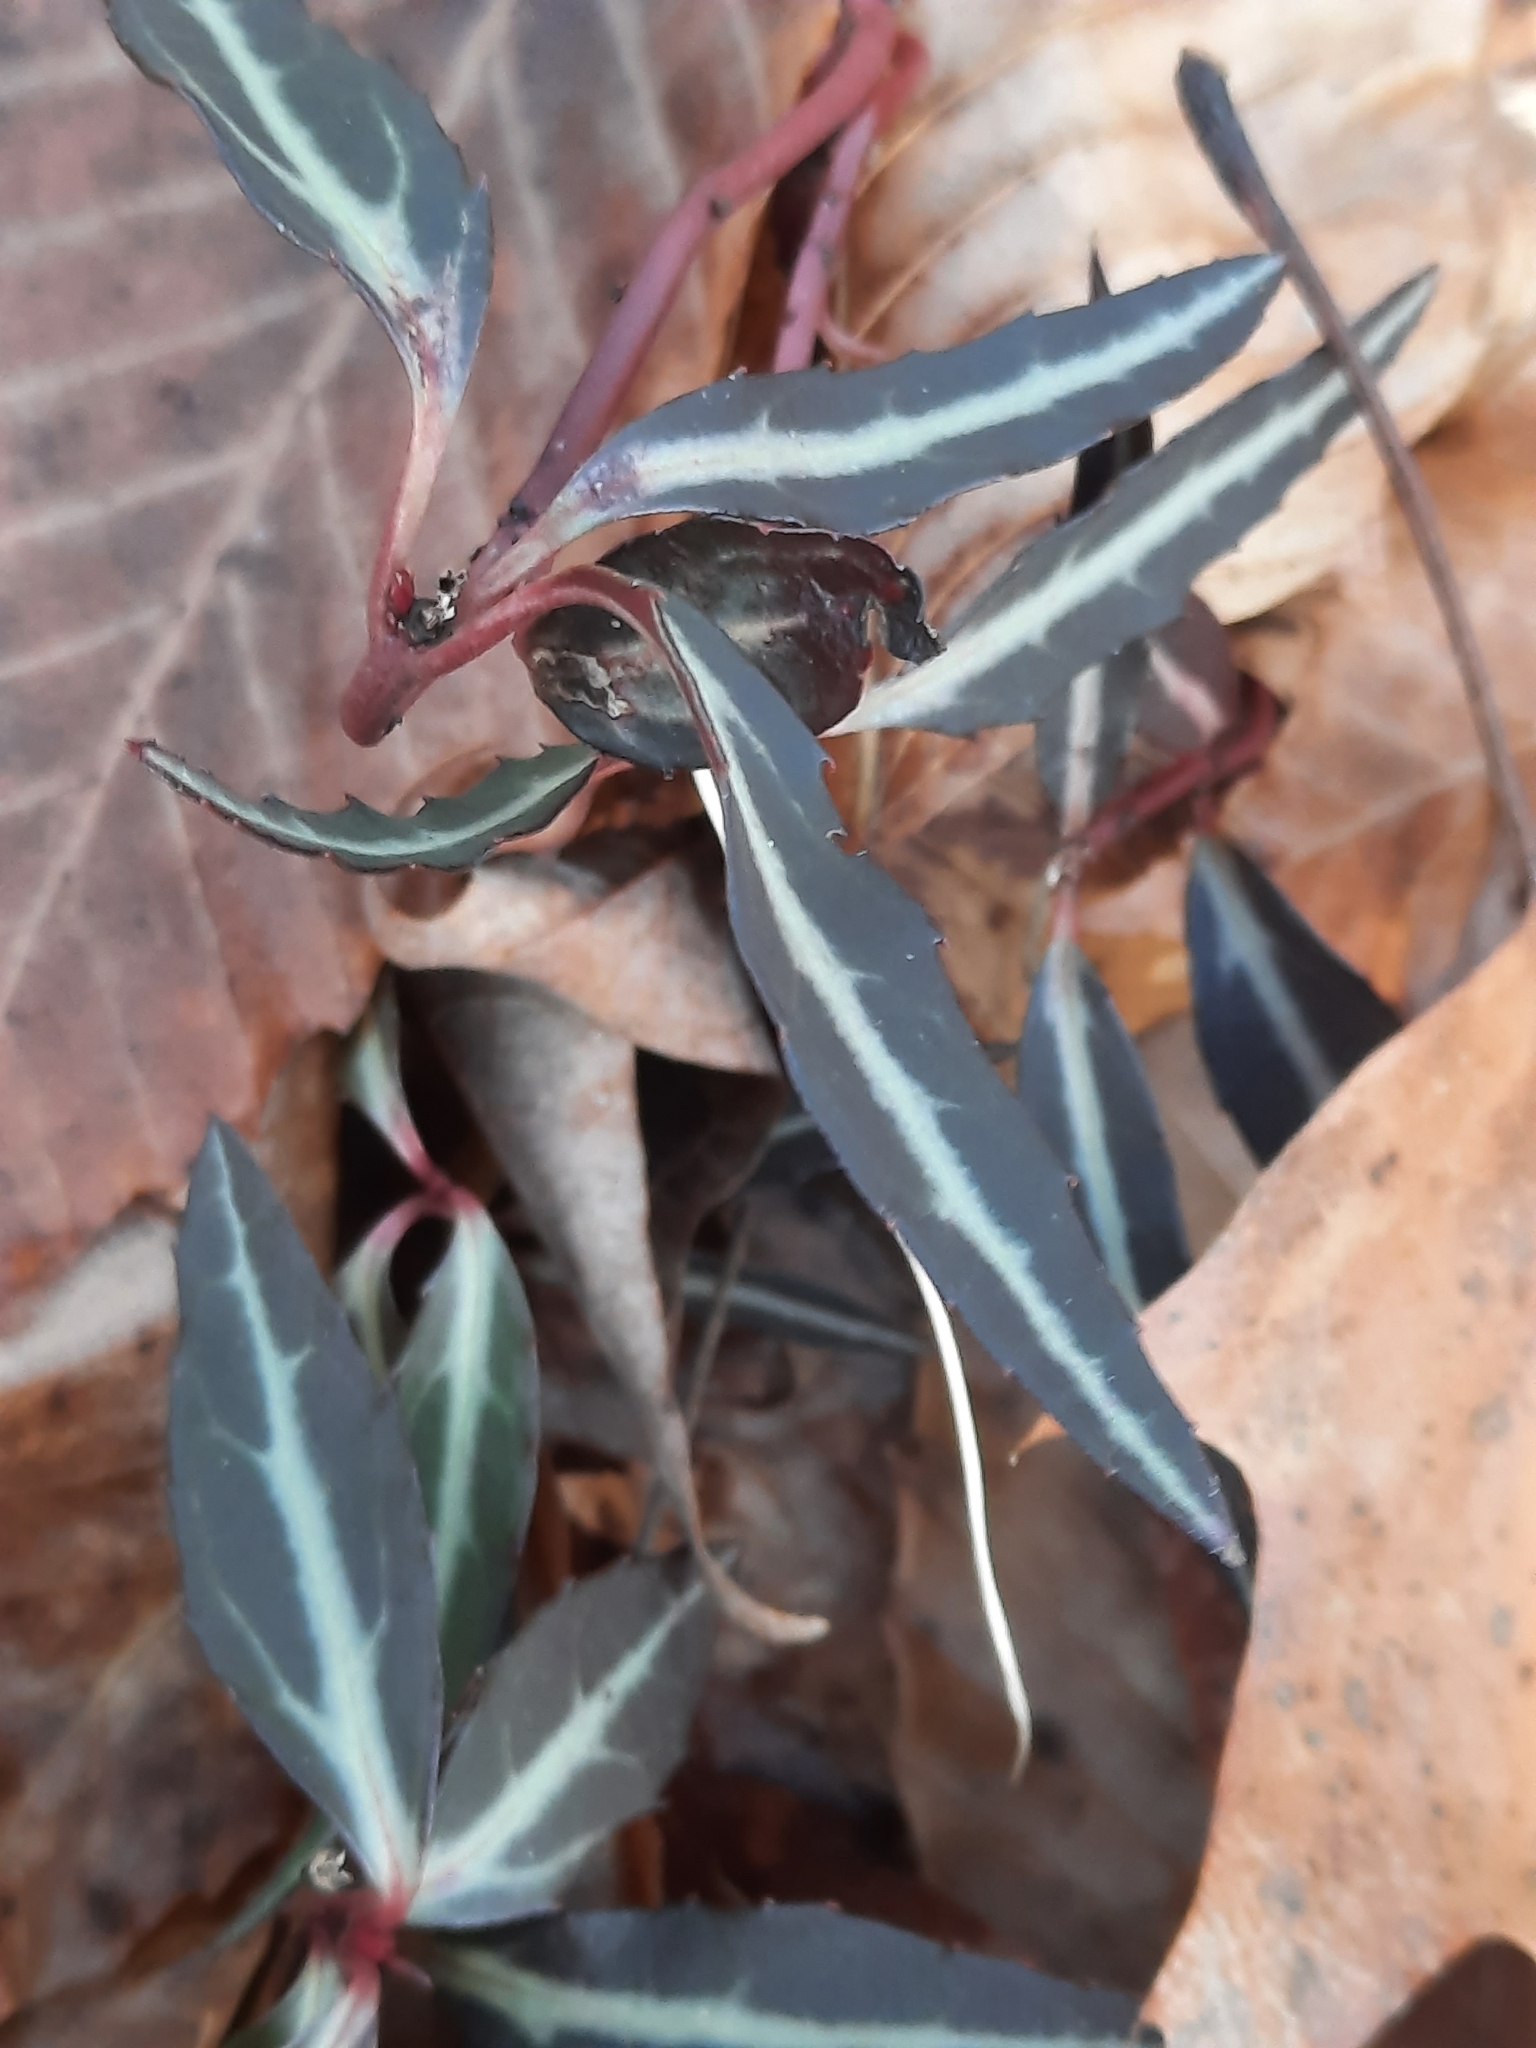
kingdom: Plantae
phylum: Tracheophyta
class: Magnoliopsida
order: Ericales
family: Ericaceae
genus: Chimaphila
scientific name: Chimaphila maculata
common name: Spotted pipsissewa
